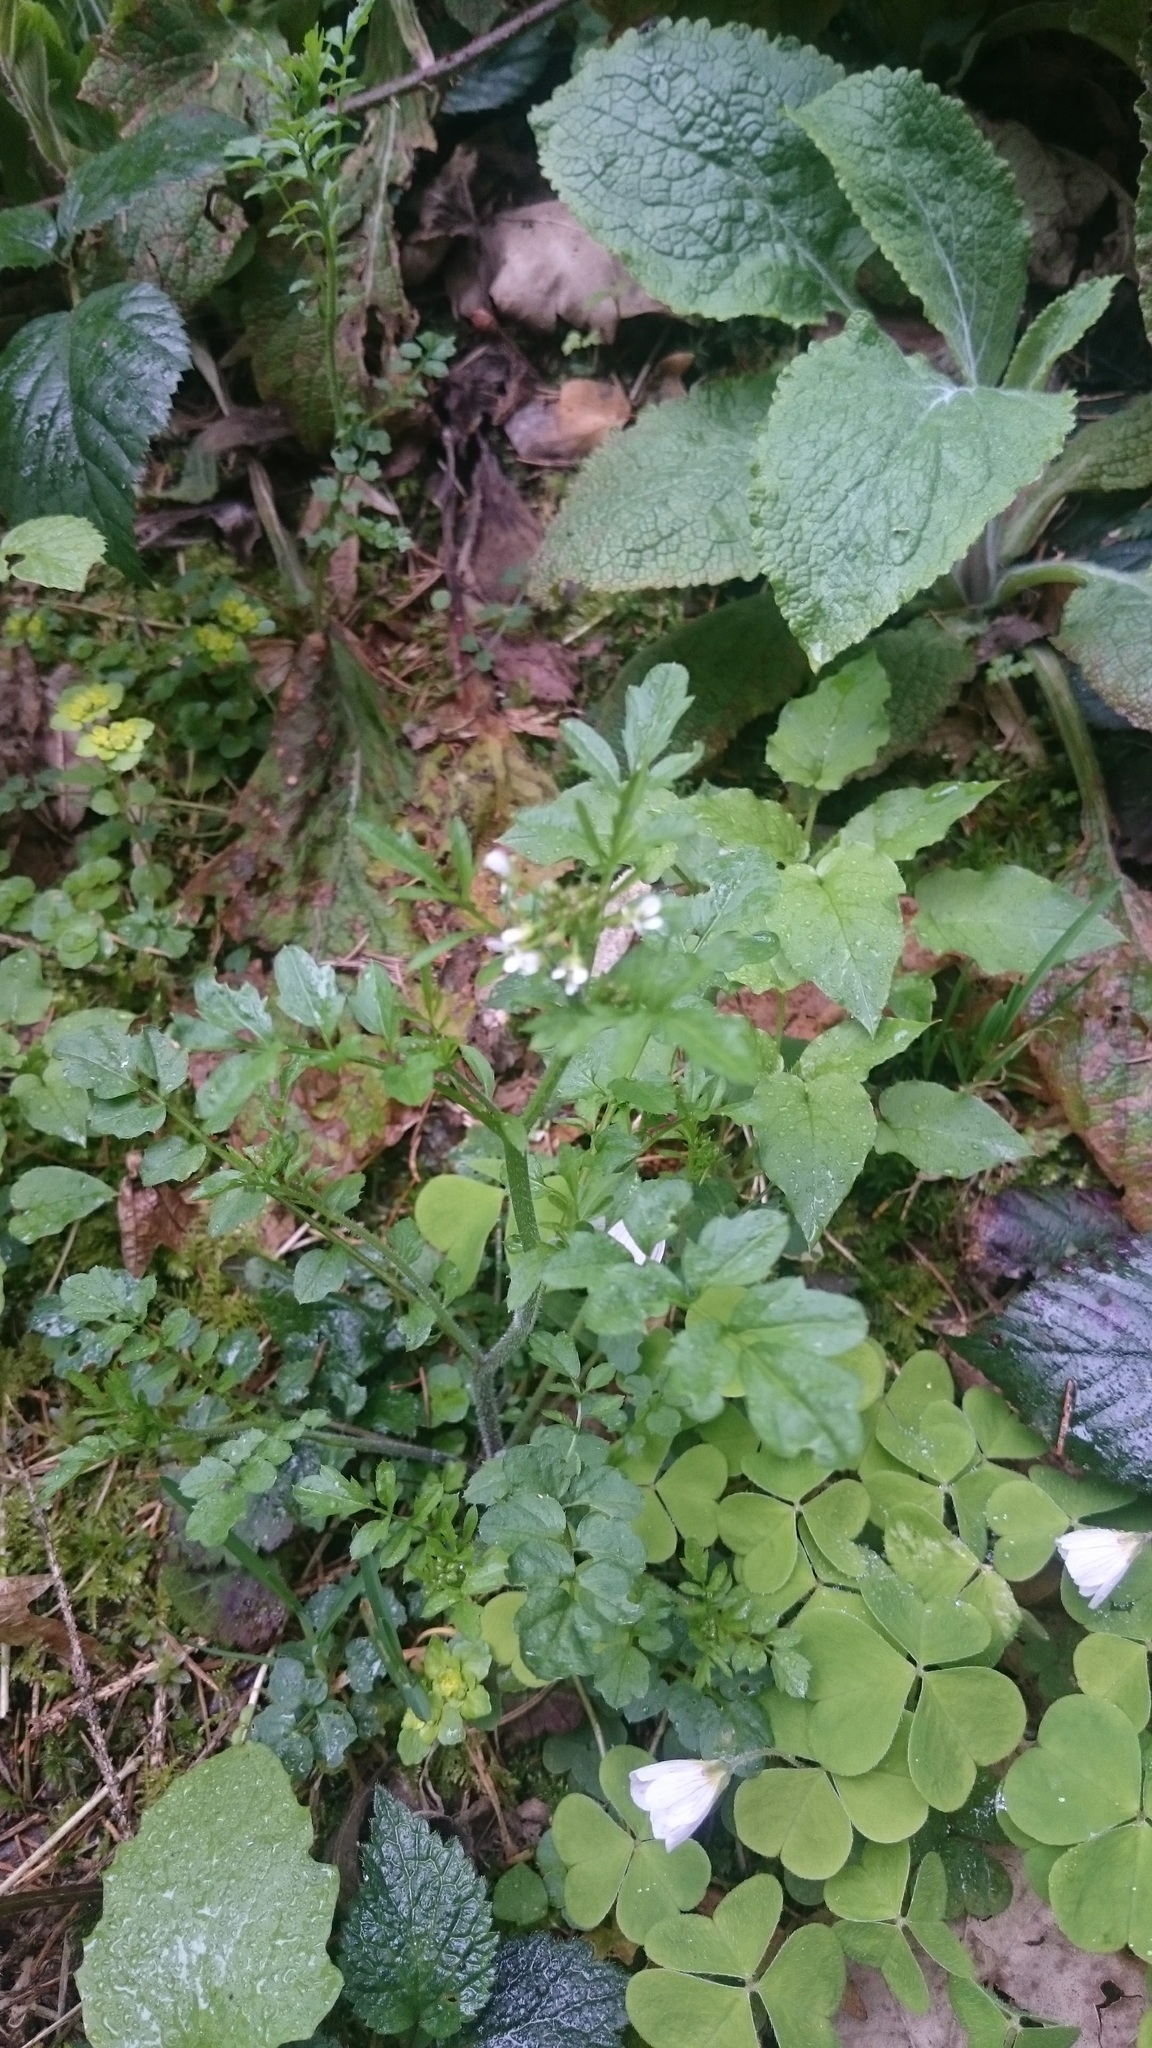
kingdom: Plantae
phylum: Tracheophyta
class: Magnoliopsida
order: Brassicales
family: Brassicaceae
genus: Cardamine
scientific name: Cardamine amara
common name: Large bitter-cress
